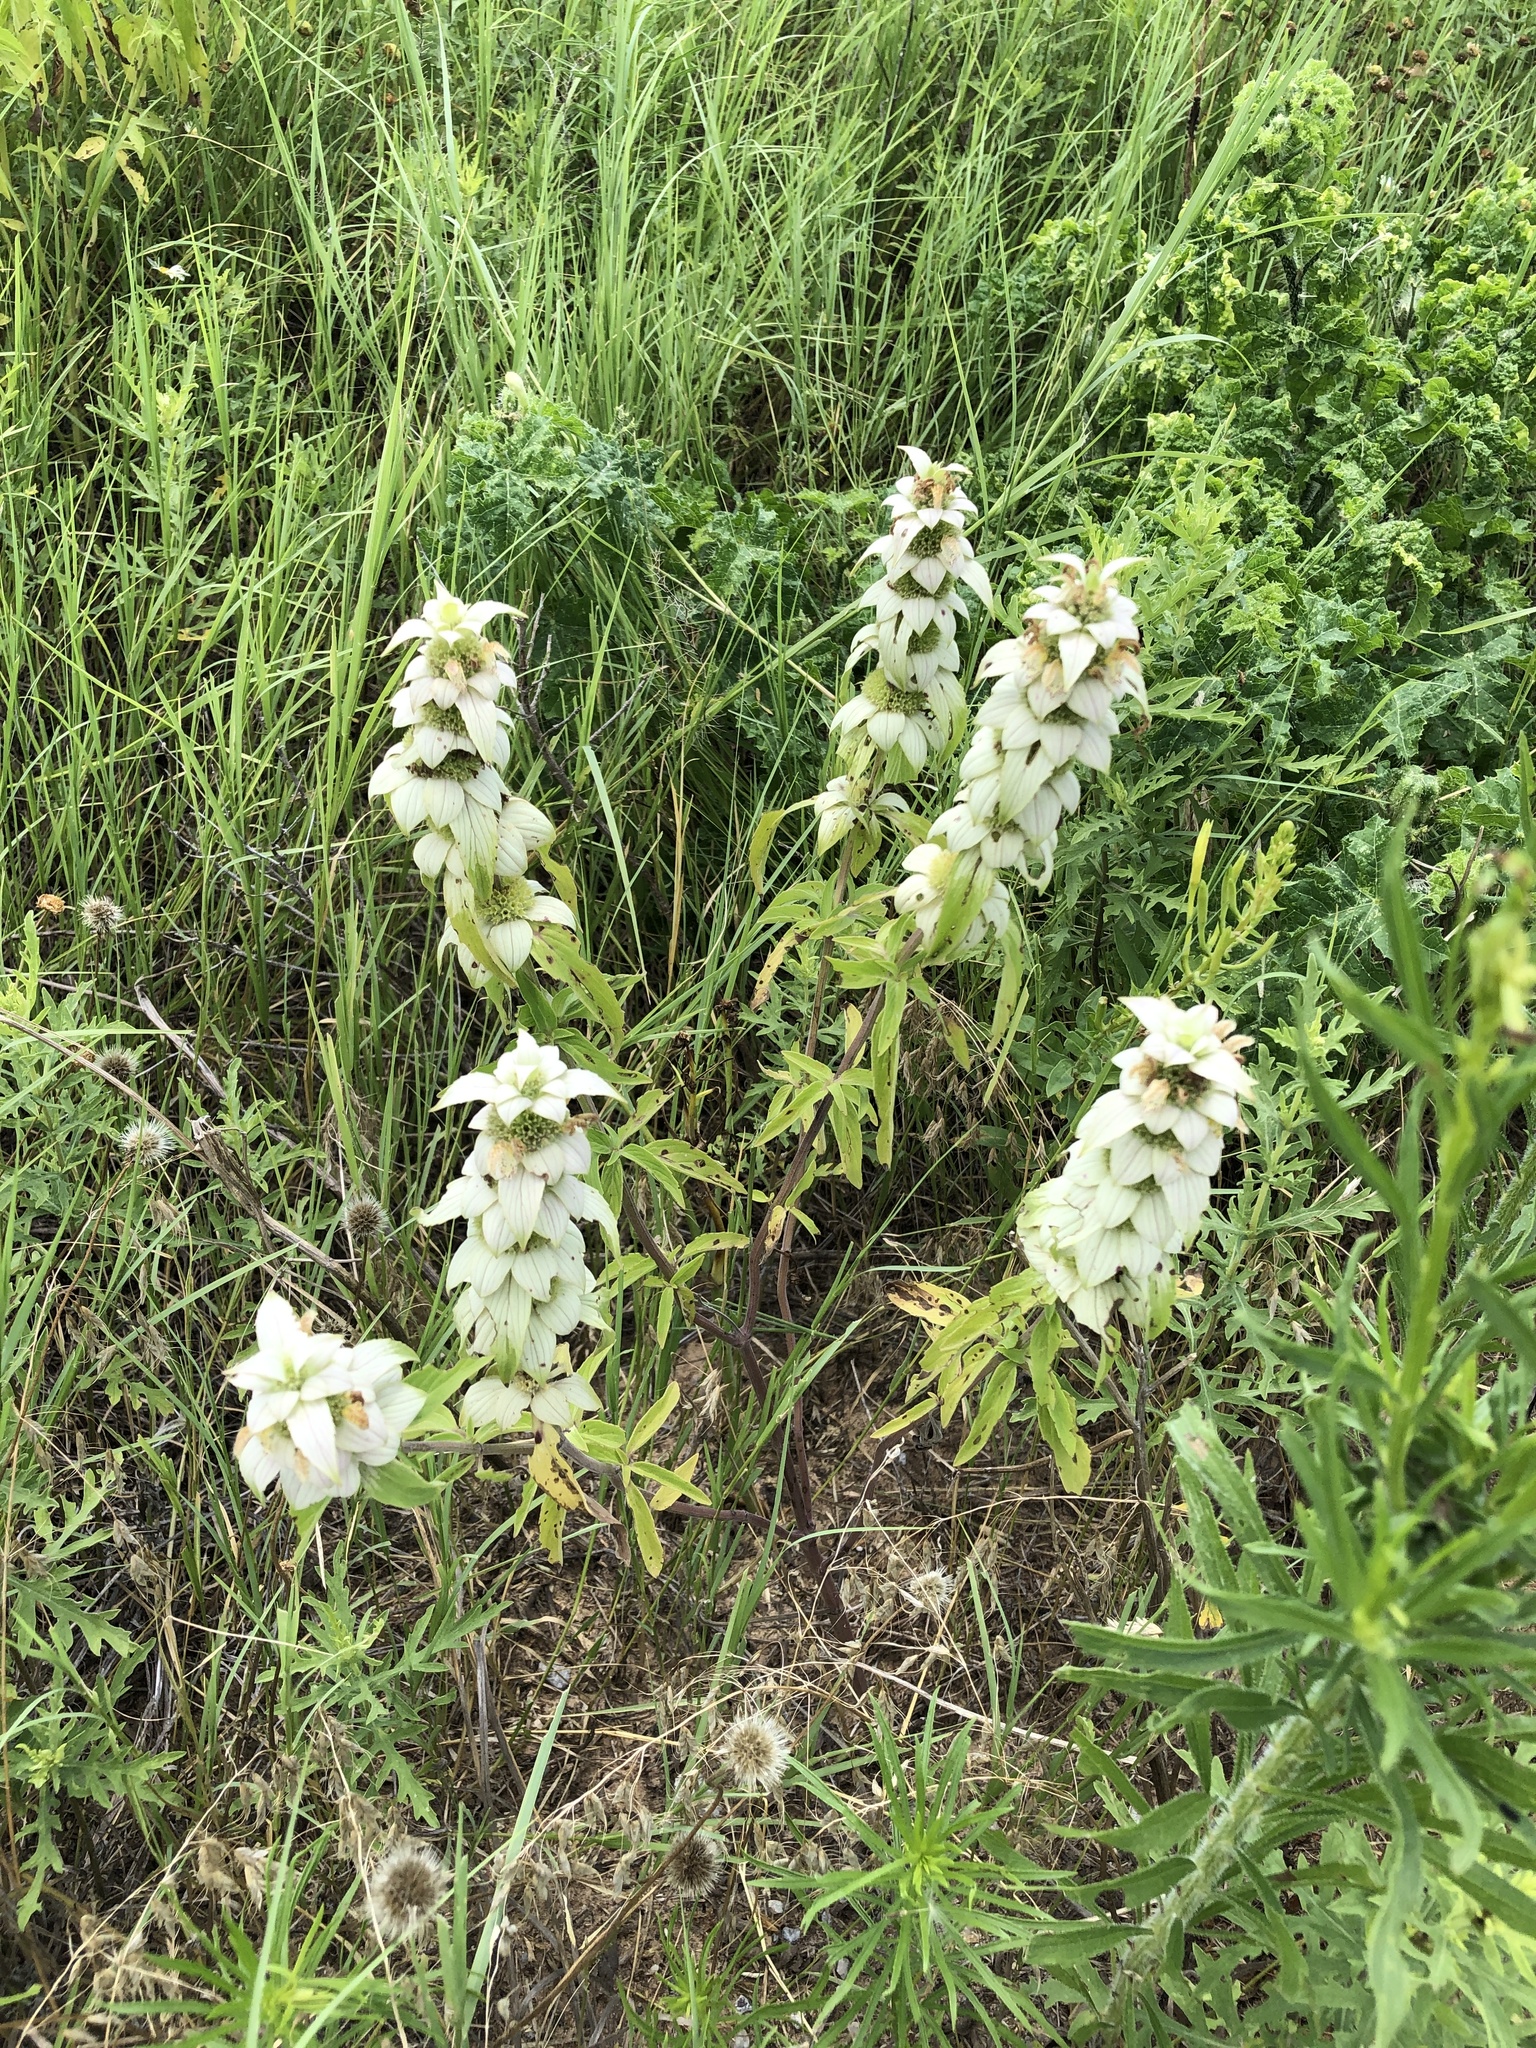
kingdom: Plantae
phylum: Tracheophyta
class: Magnoliopsida
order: Lamiales
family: Lamiaceae
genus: Monarda
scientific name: Monarda punctata
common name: Dotted monarda
